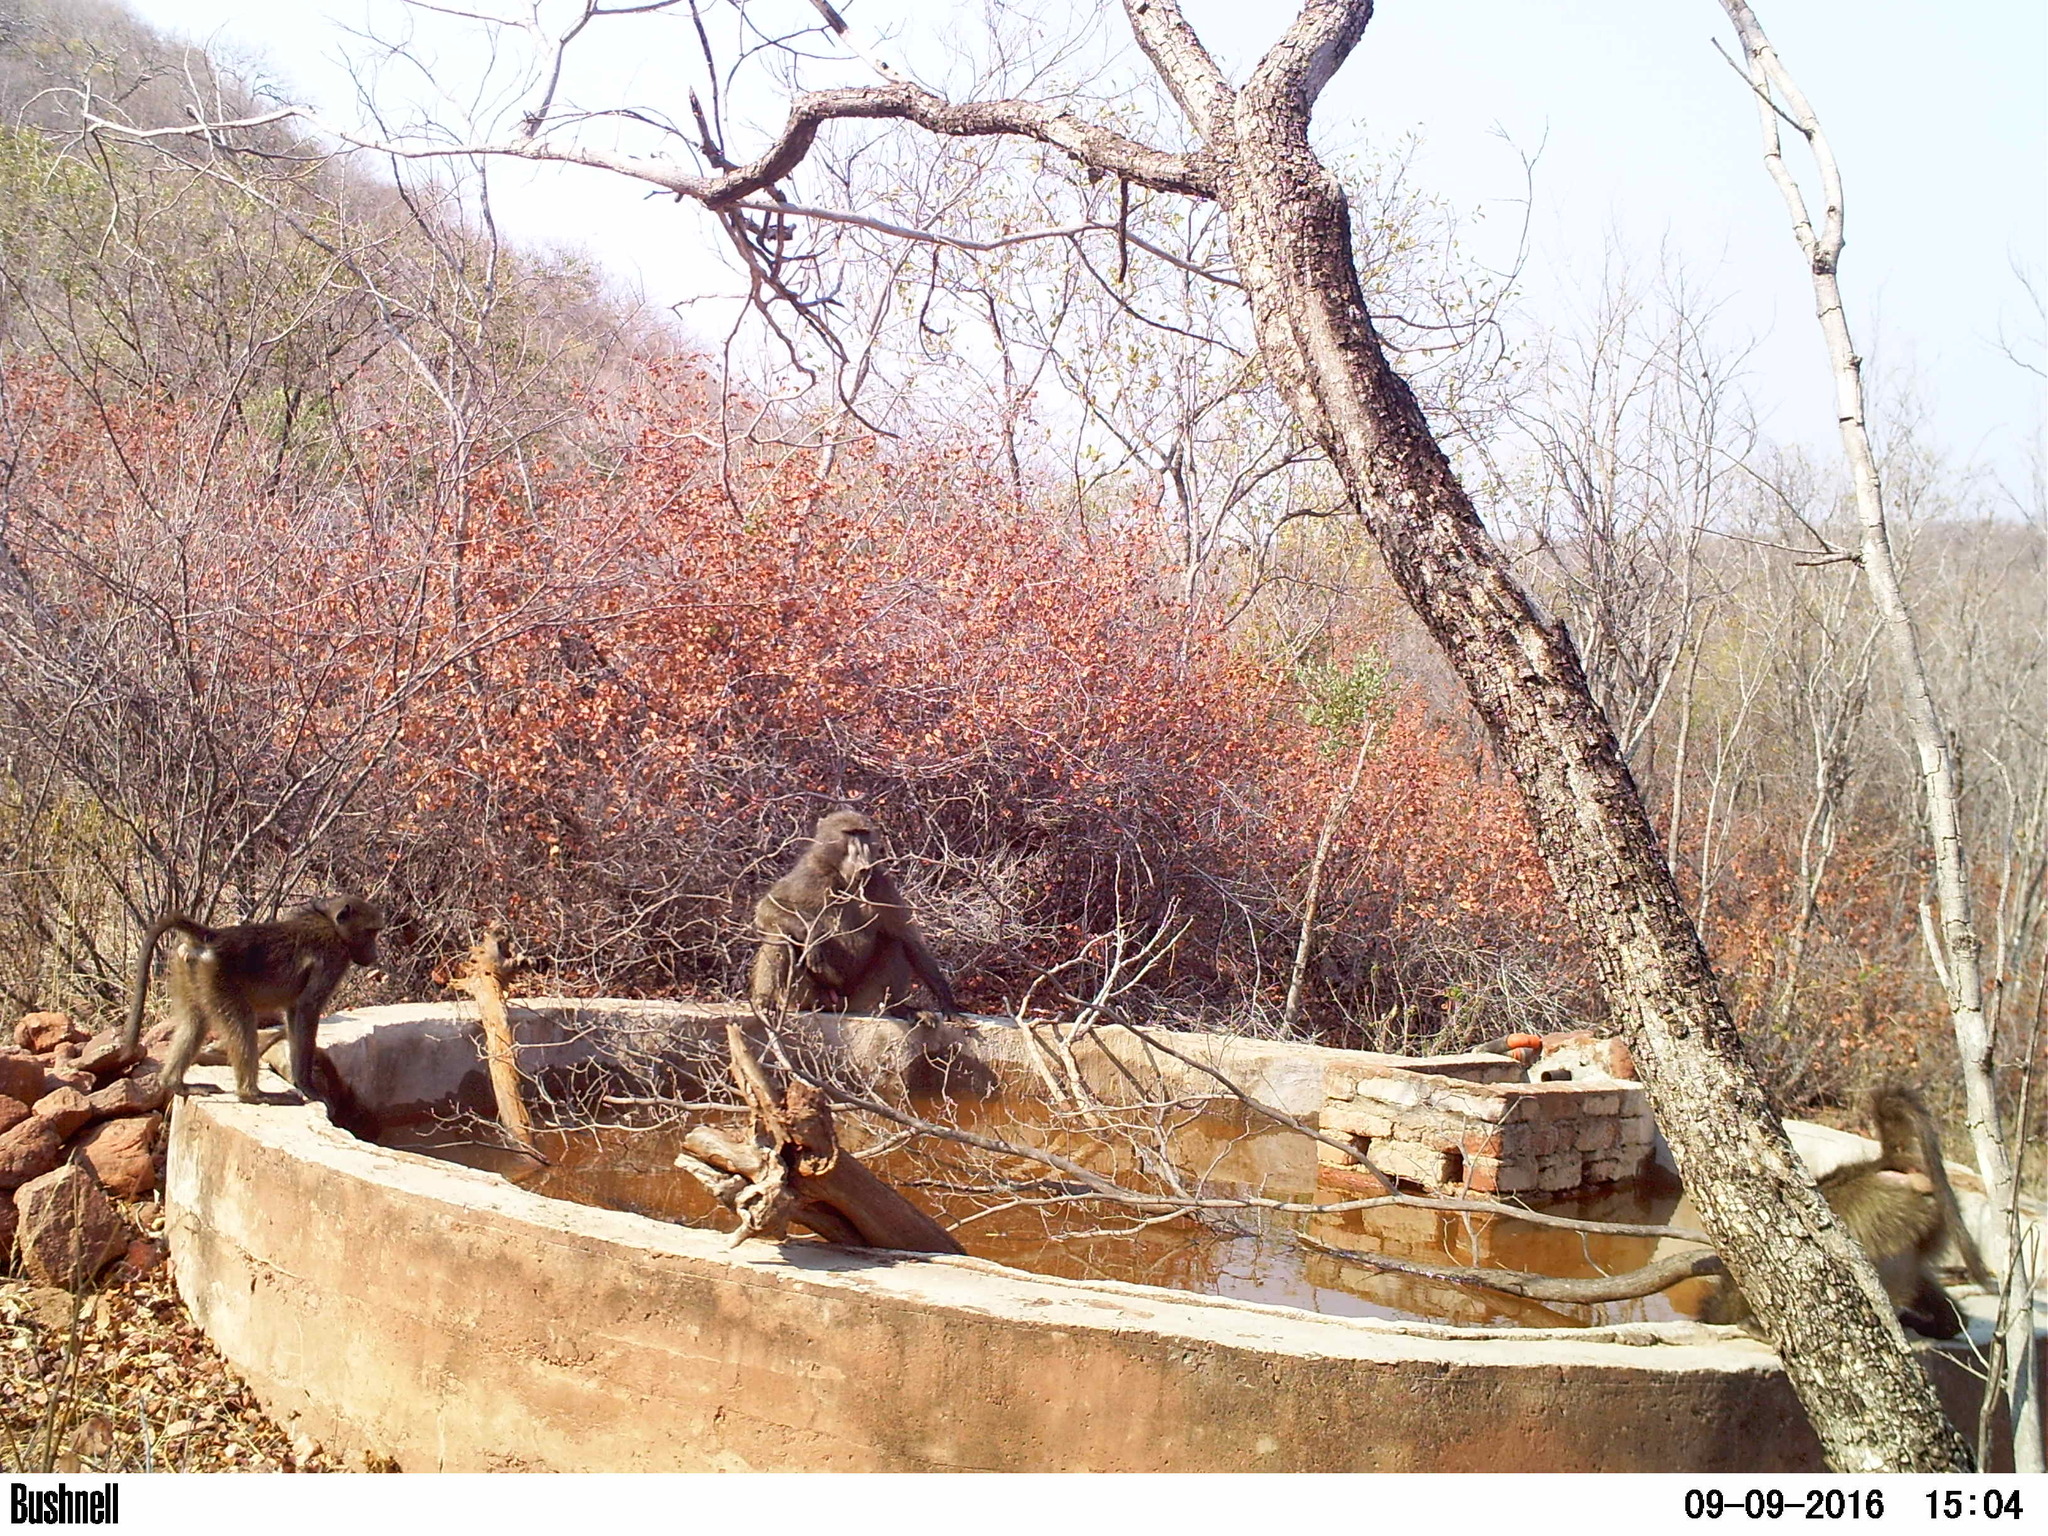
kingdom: Animalia
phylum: Chordata
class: Mammalia
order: Primates
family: Cercopithecidae
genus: Papio
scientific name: Papio ursinus
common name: Chacma baboon
